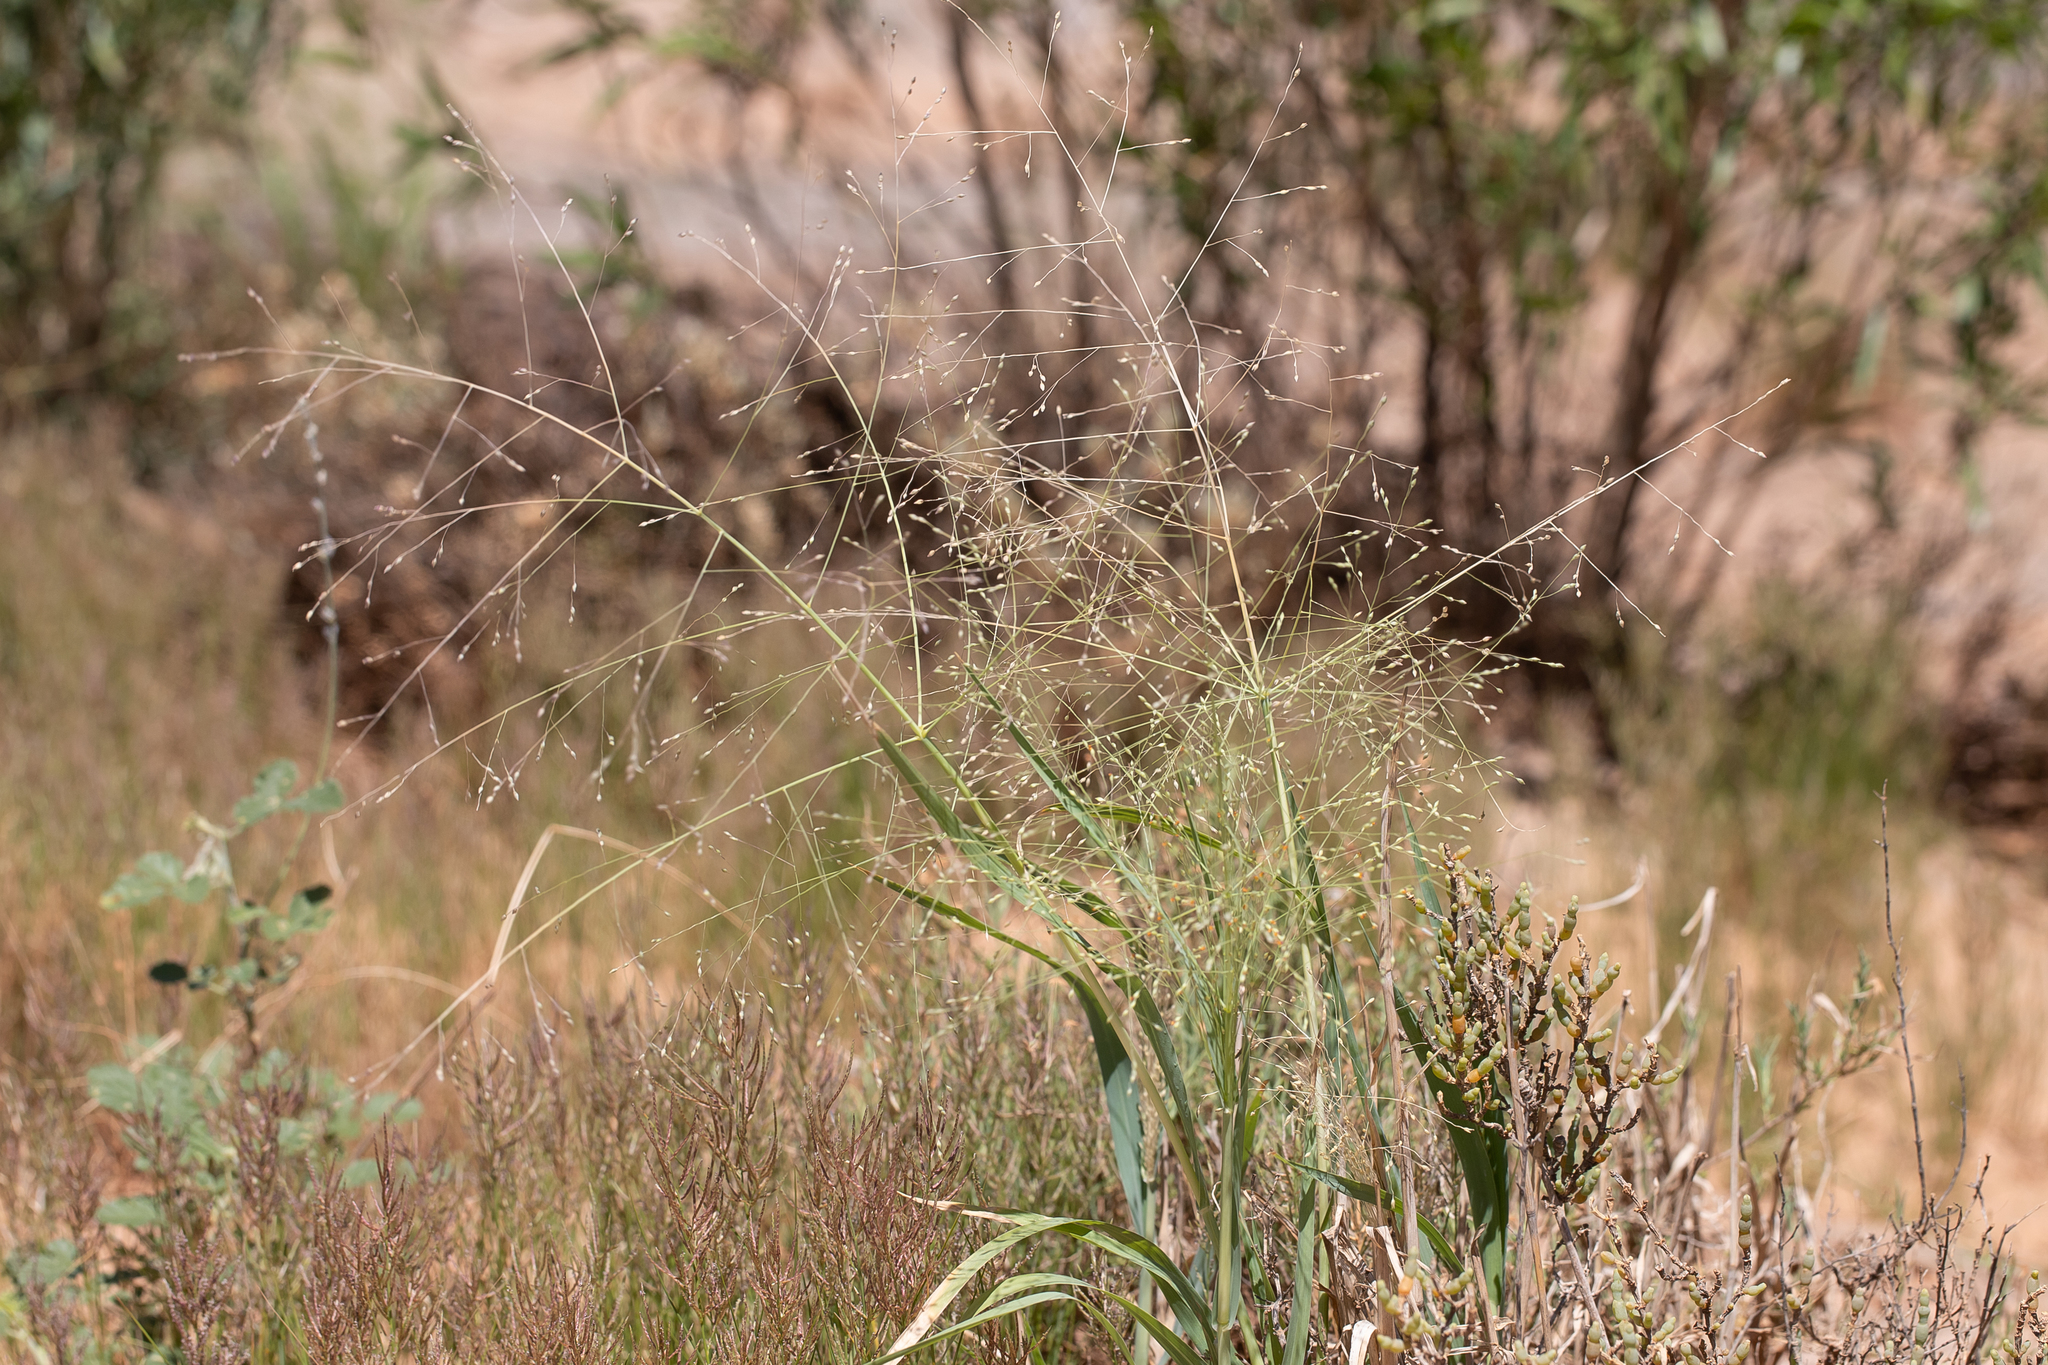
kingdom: Plantae
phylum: Tracheophyta
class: Liliopsida
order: Poales
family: Poaceae
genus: Panicum
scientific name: Panicum decompositum
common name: Australian millet
